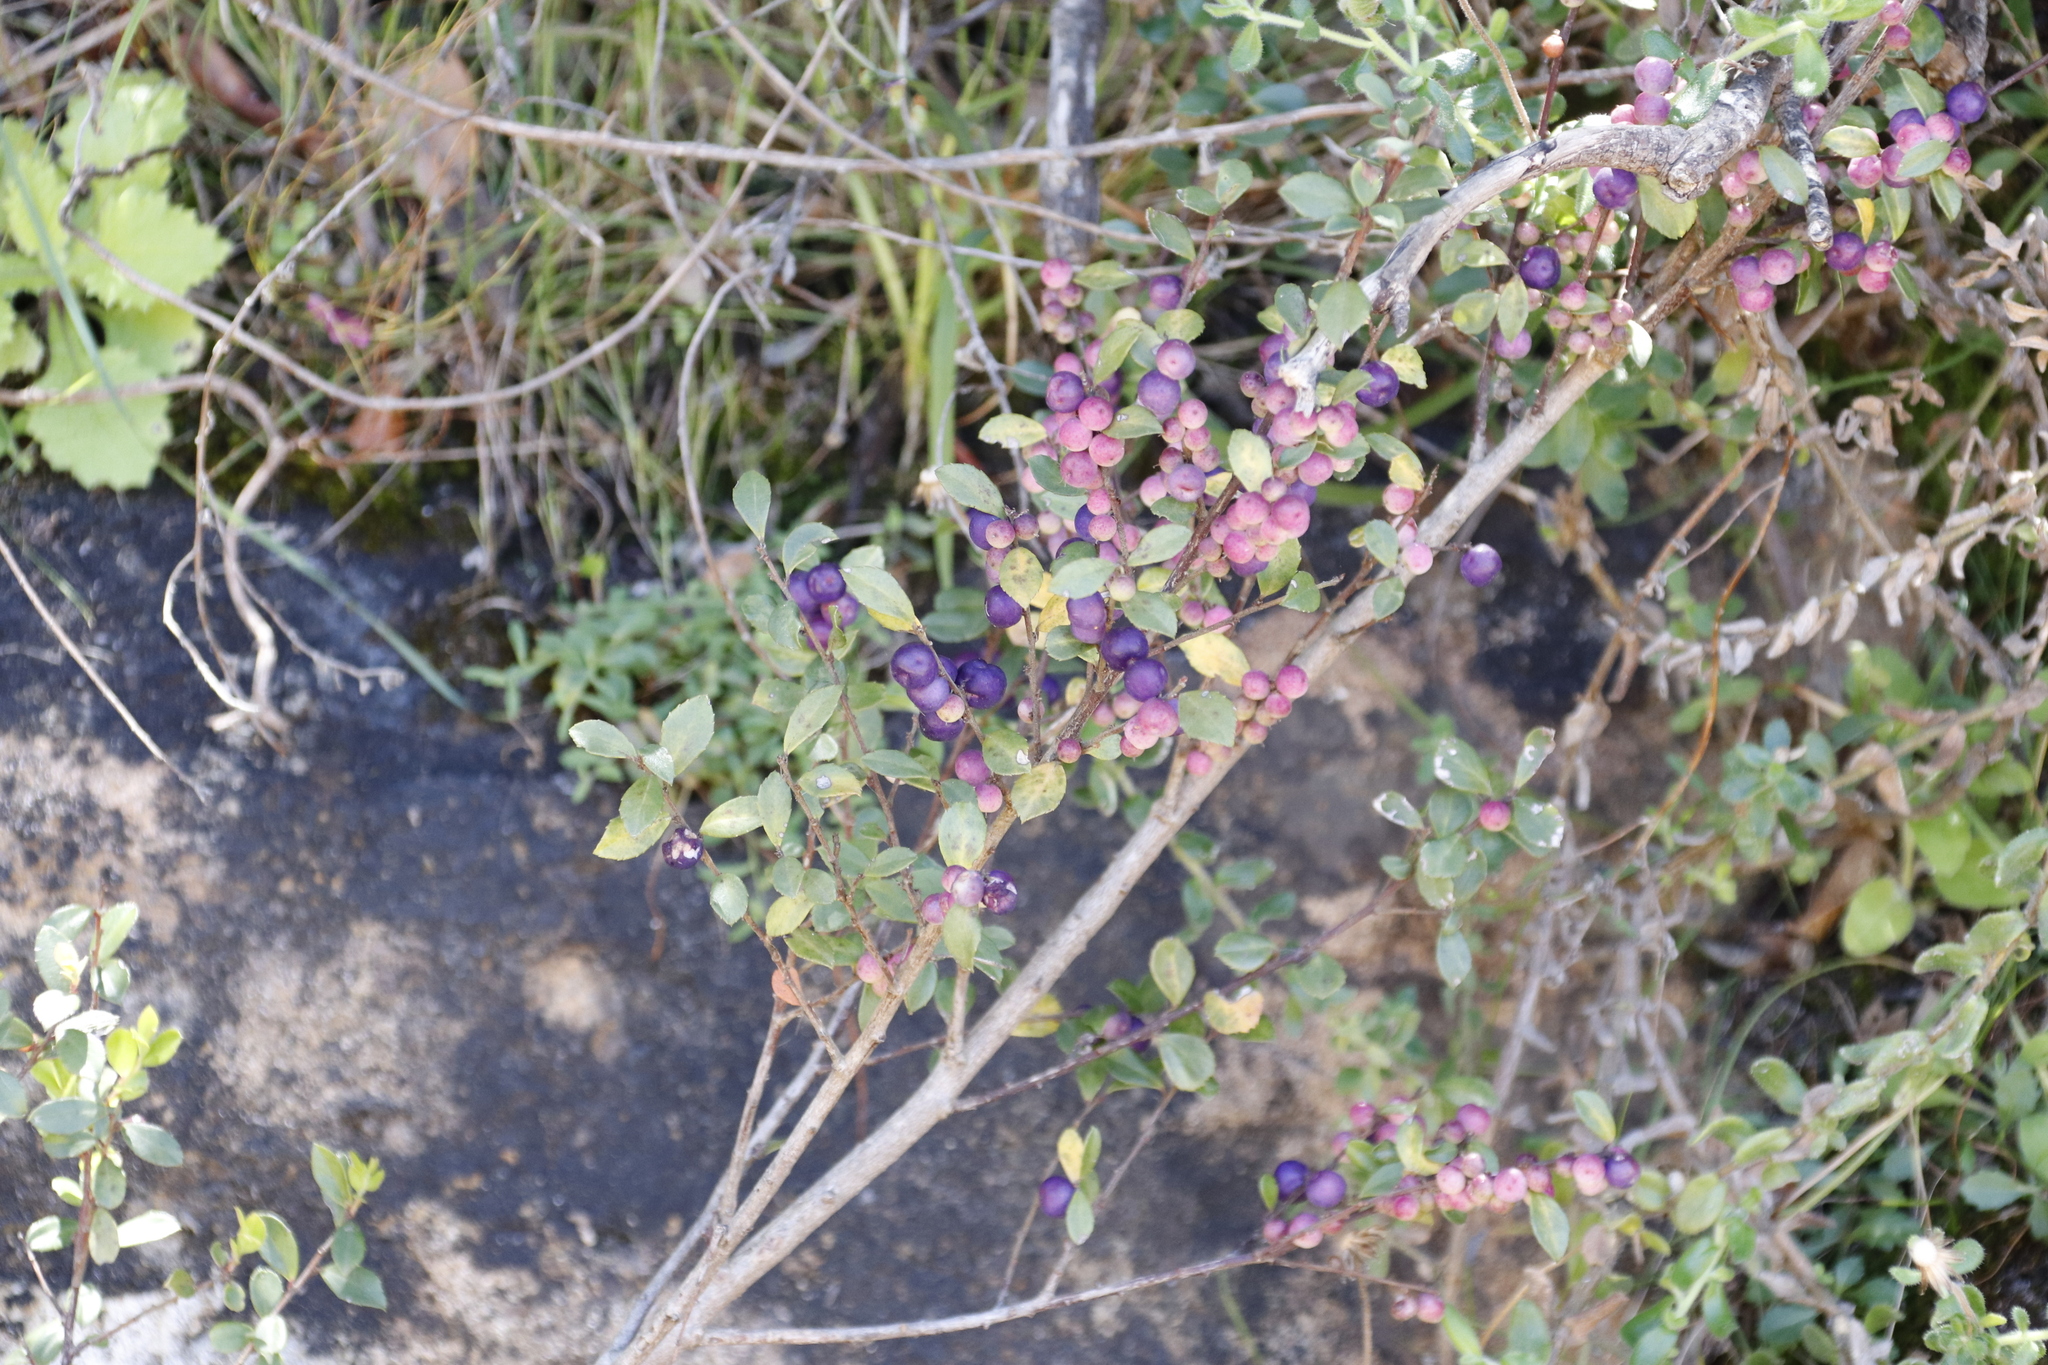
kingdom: Plantae
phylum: Tracheophyta
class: Magnoliopsida
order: Ericales
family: Primulaceae
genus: Myrsine
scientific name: Myrsine africana
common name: African-boxwood
